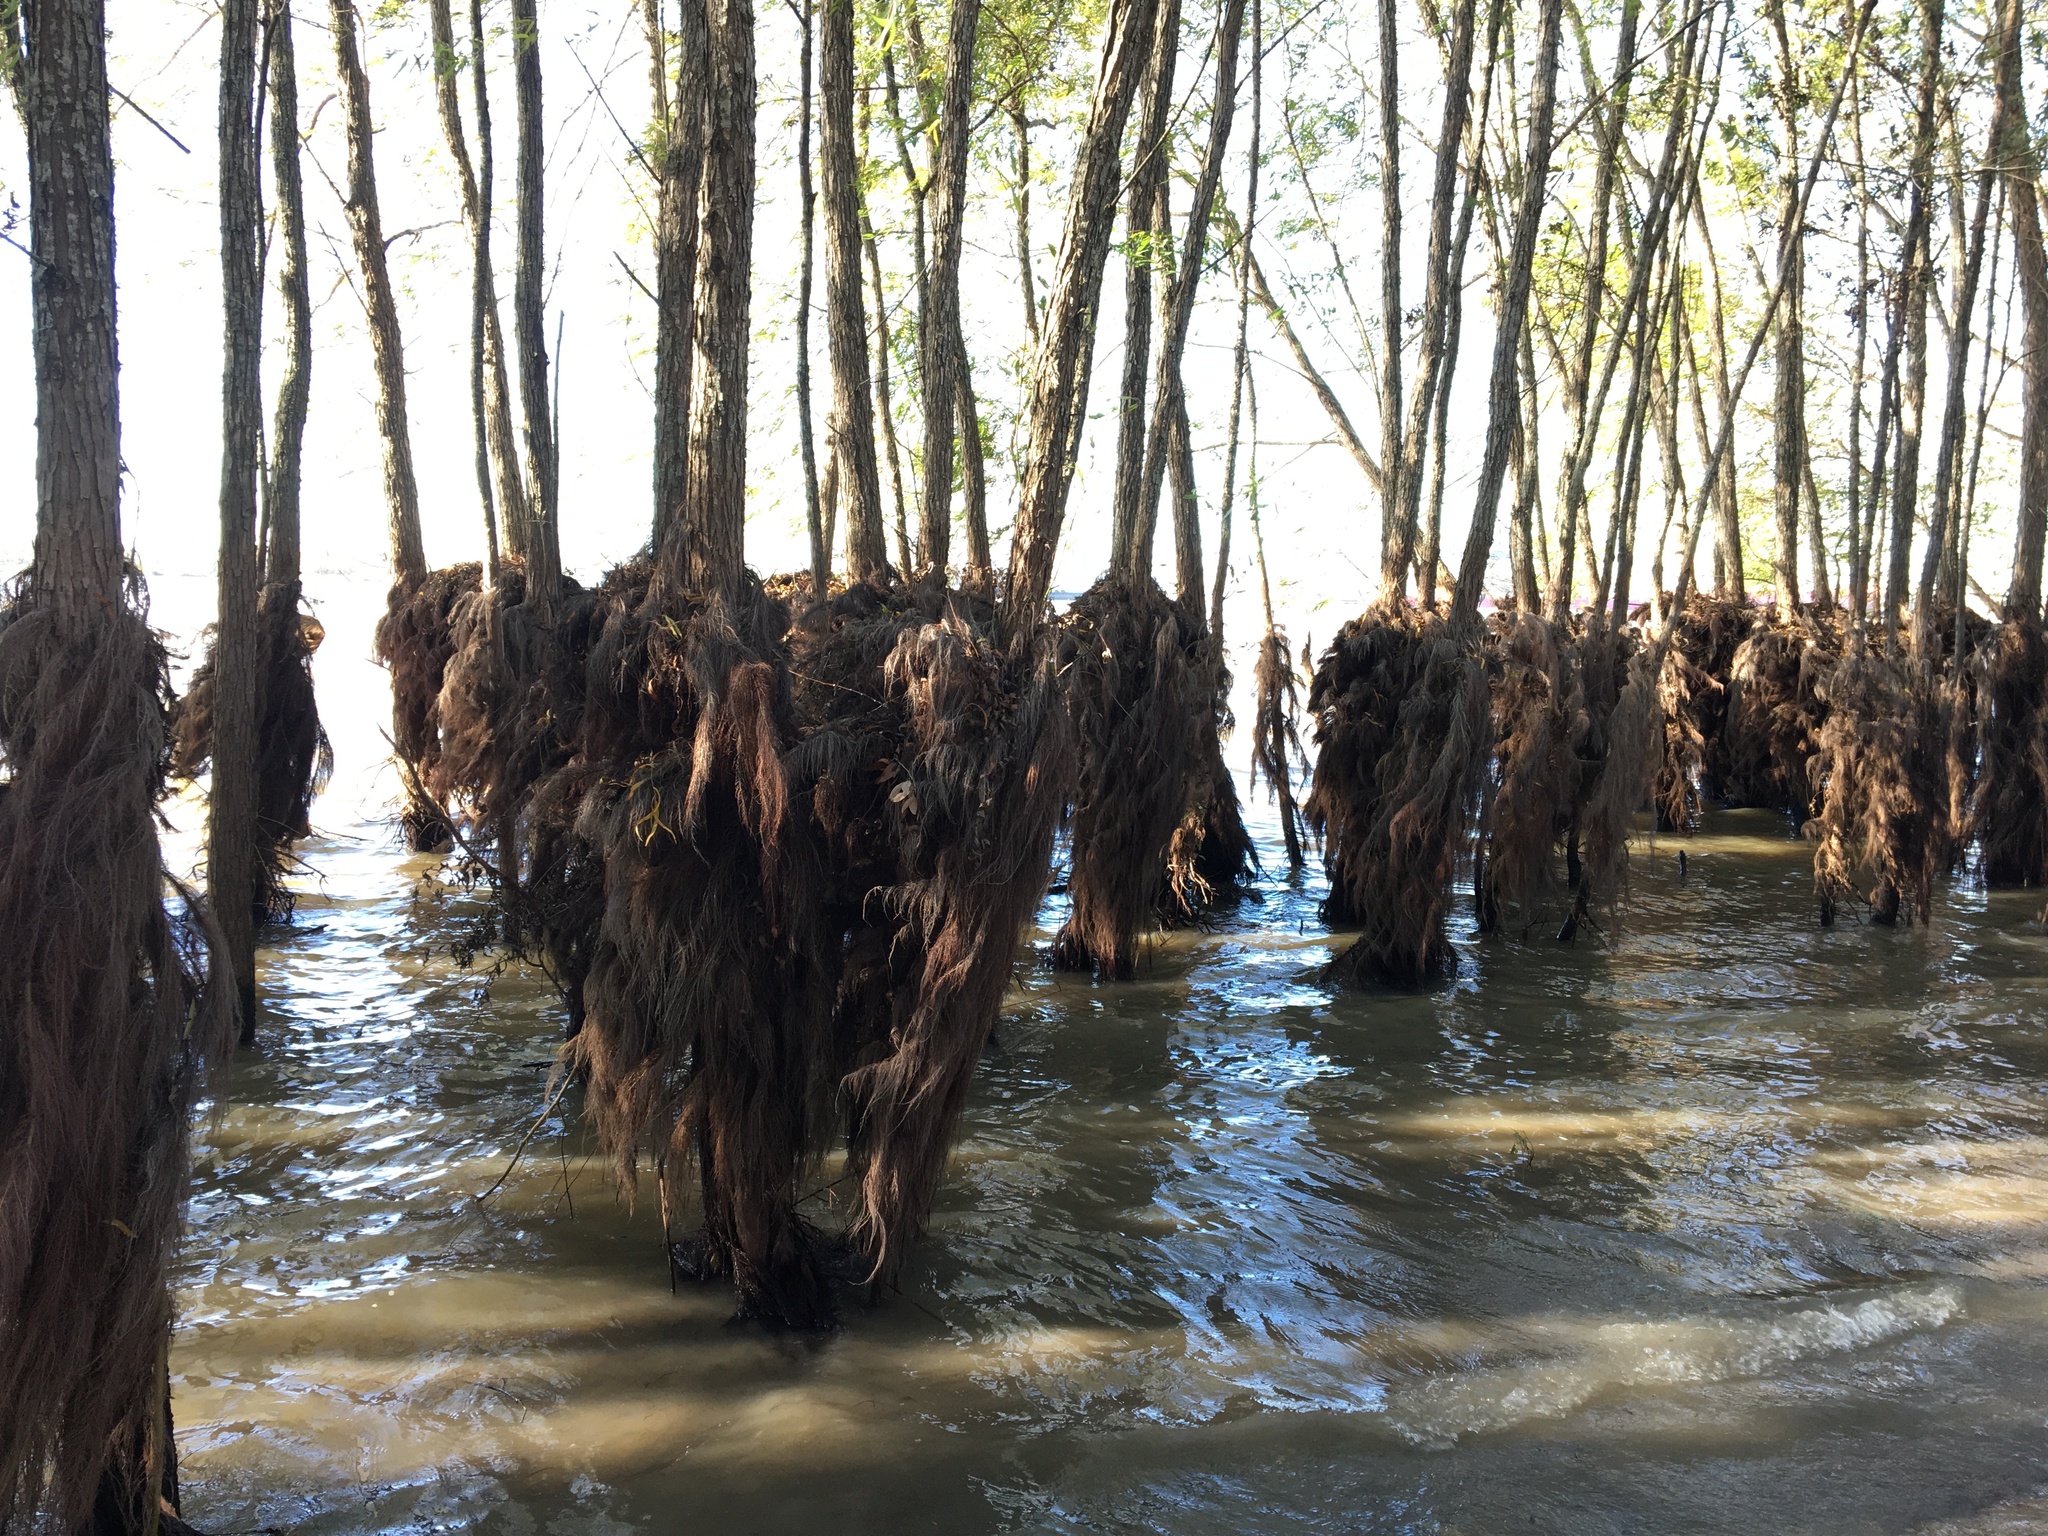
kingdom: Plantae
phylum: Tracheophyta
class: Magnoliopsida
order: Malpighiales
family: Salicaceae
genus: Salix
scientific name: Salix nigra
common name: Black willow
